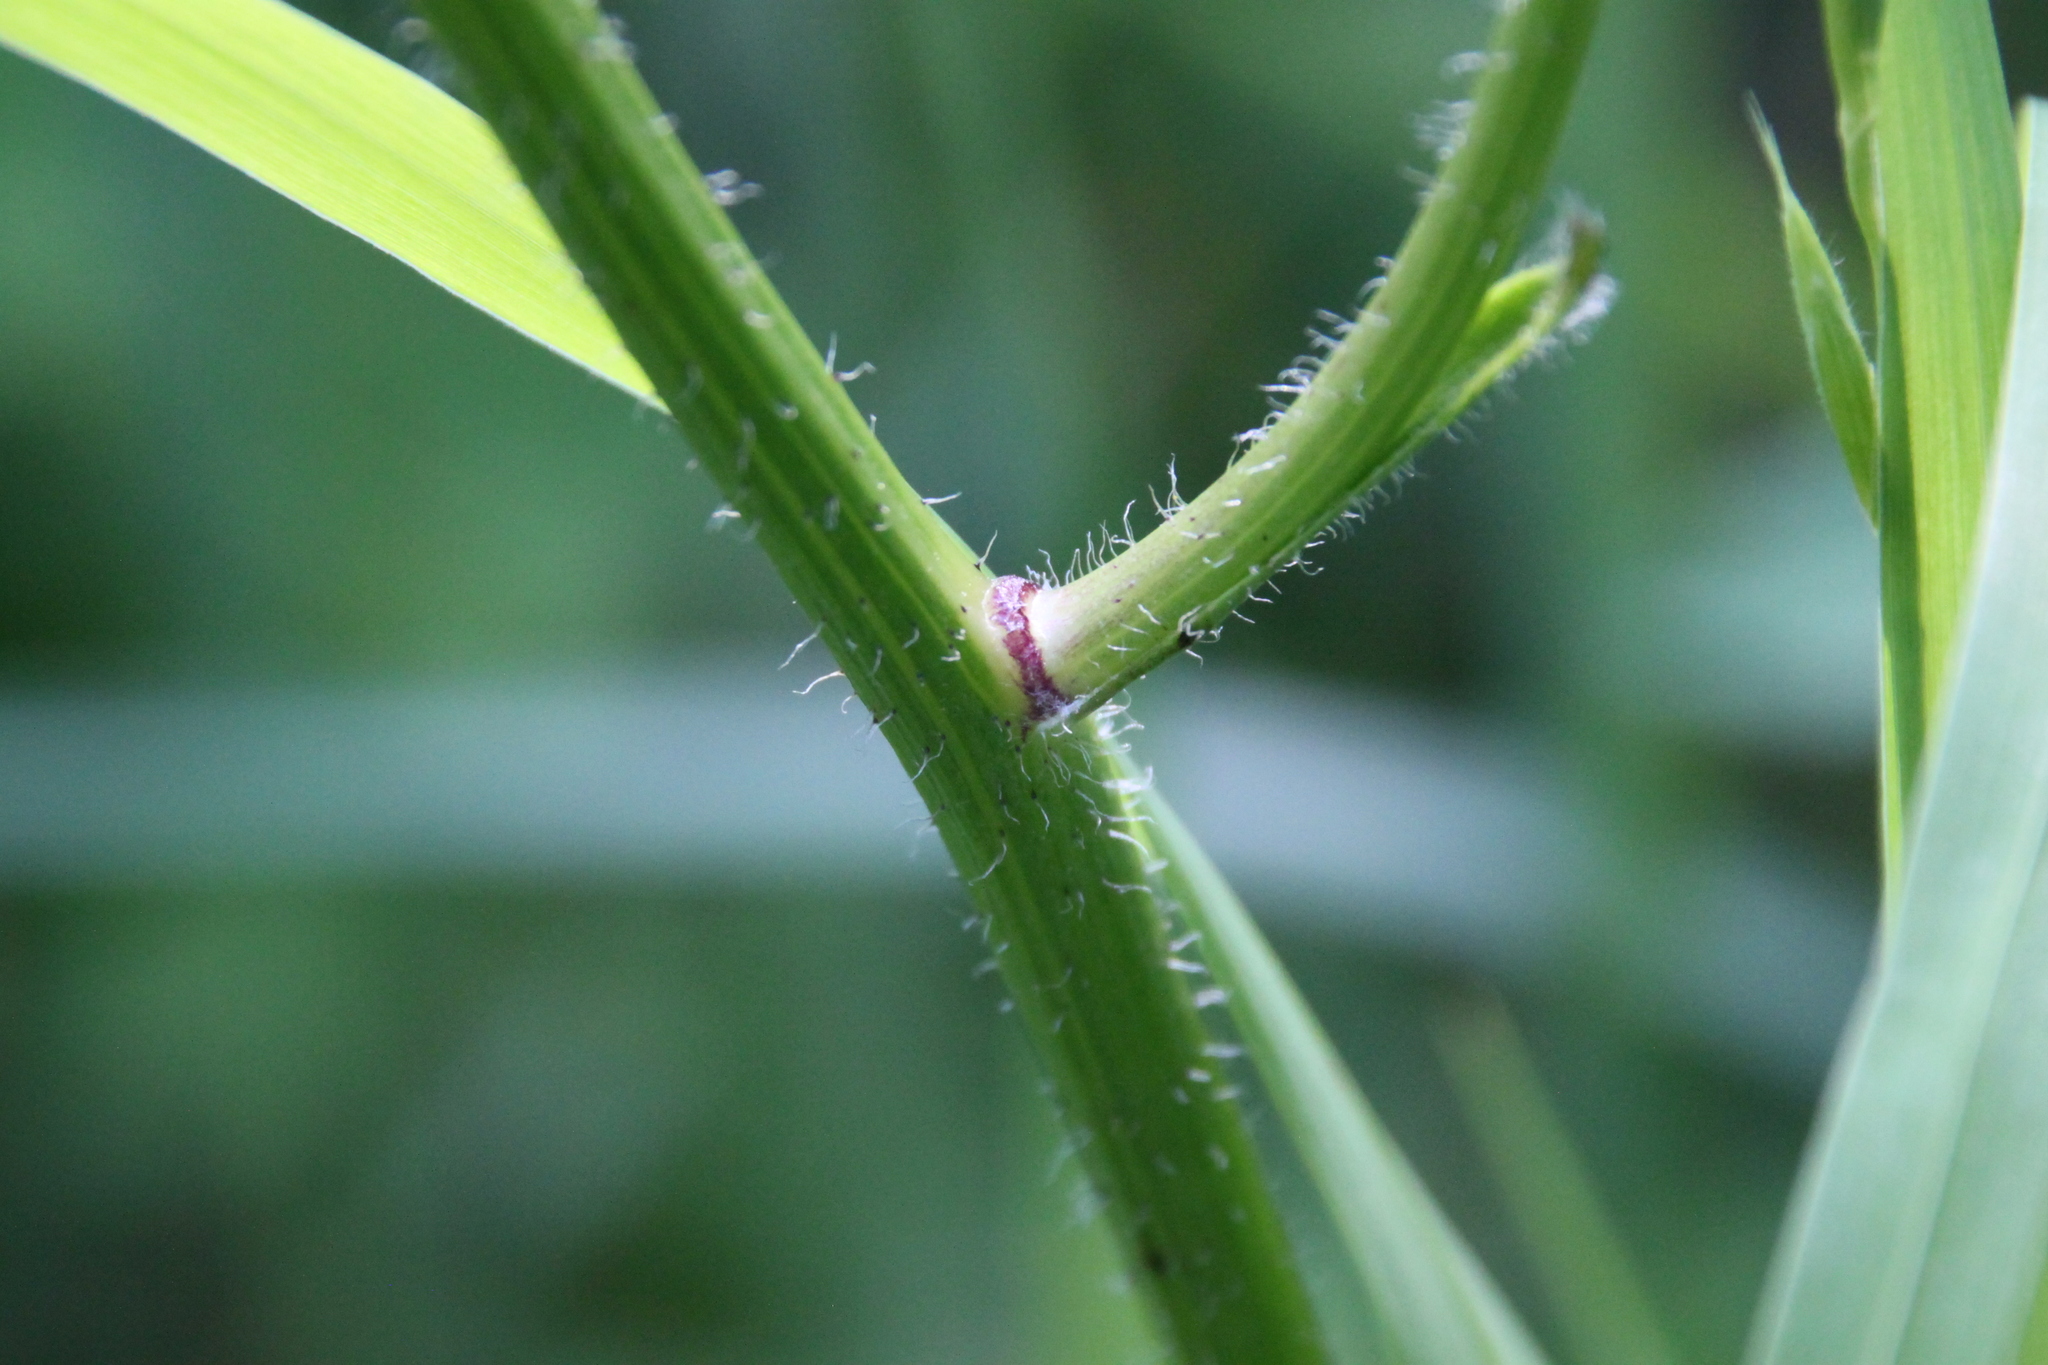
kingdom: Plantae
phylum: Tracheophyta
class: Magnoliopsida
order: Asterales
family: Asteraceae
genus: Trommsdorffia
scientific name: Trommsdorffia maculata
